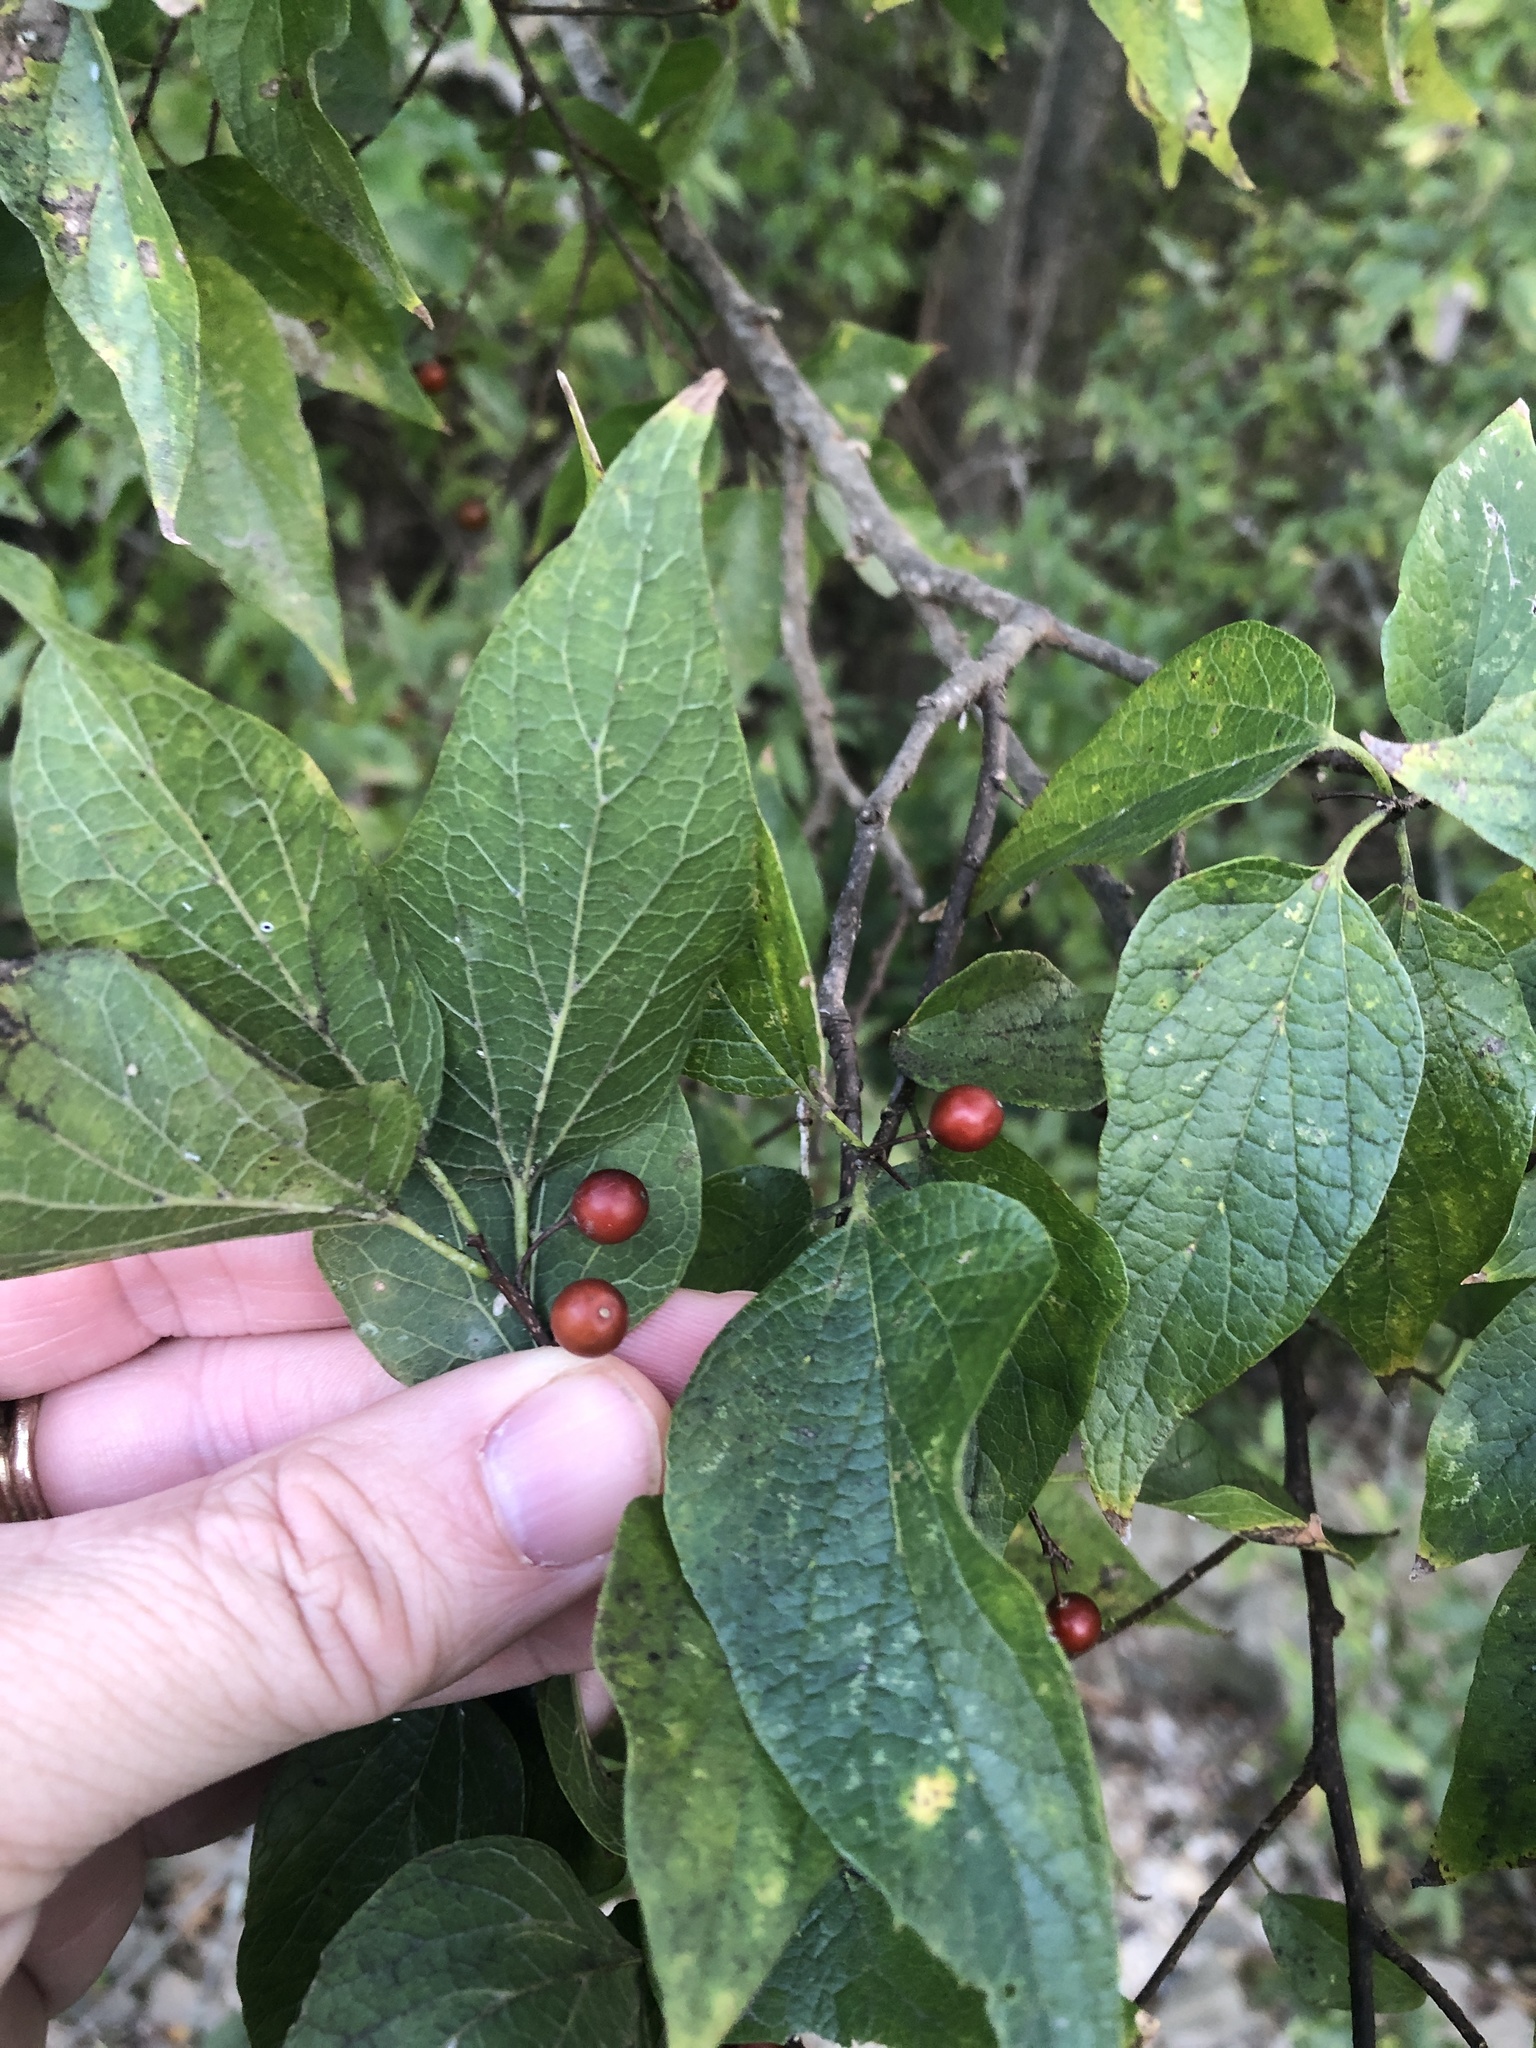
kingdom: Plantae
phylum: Tracheophyta
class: Magnoliopsida
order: Rosales
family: Cannabaceae
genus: Celtis
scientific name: Celtis laevigata
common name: Sugarberry
